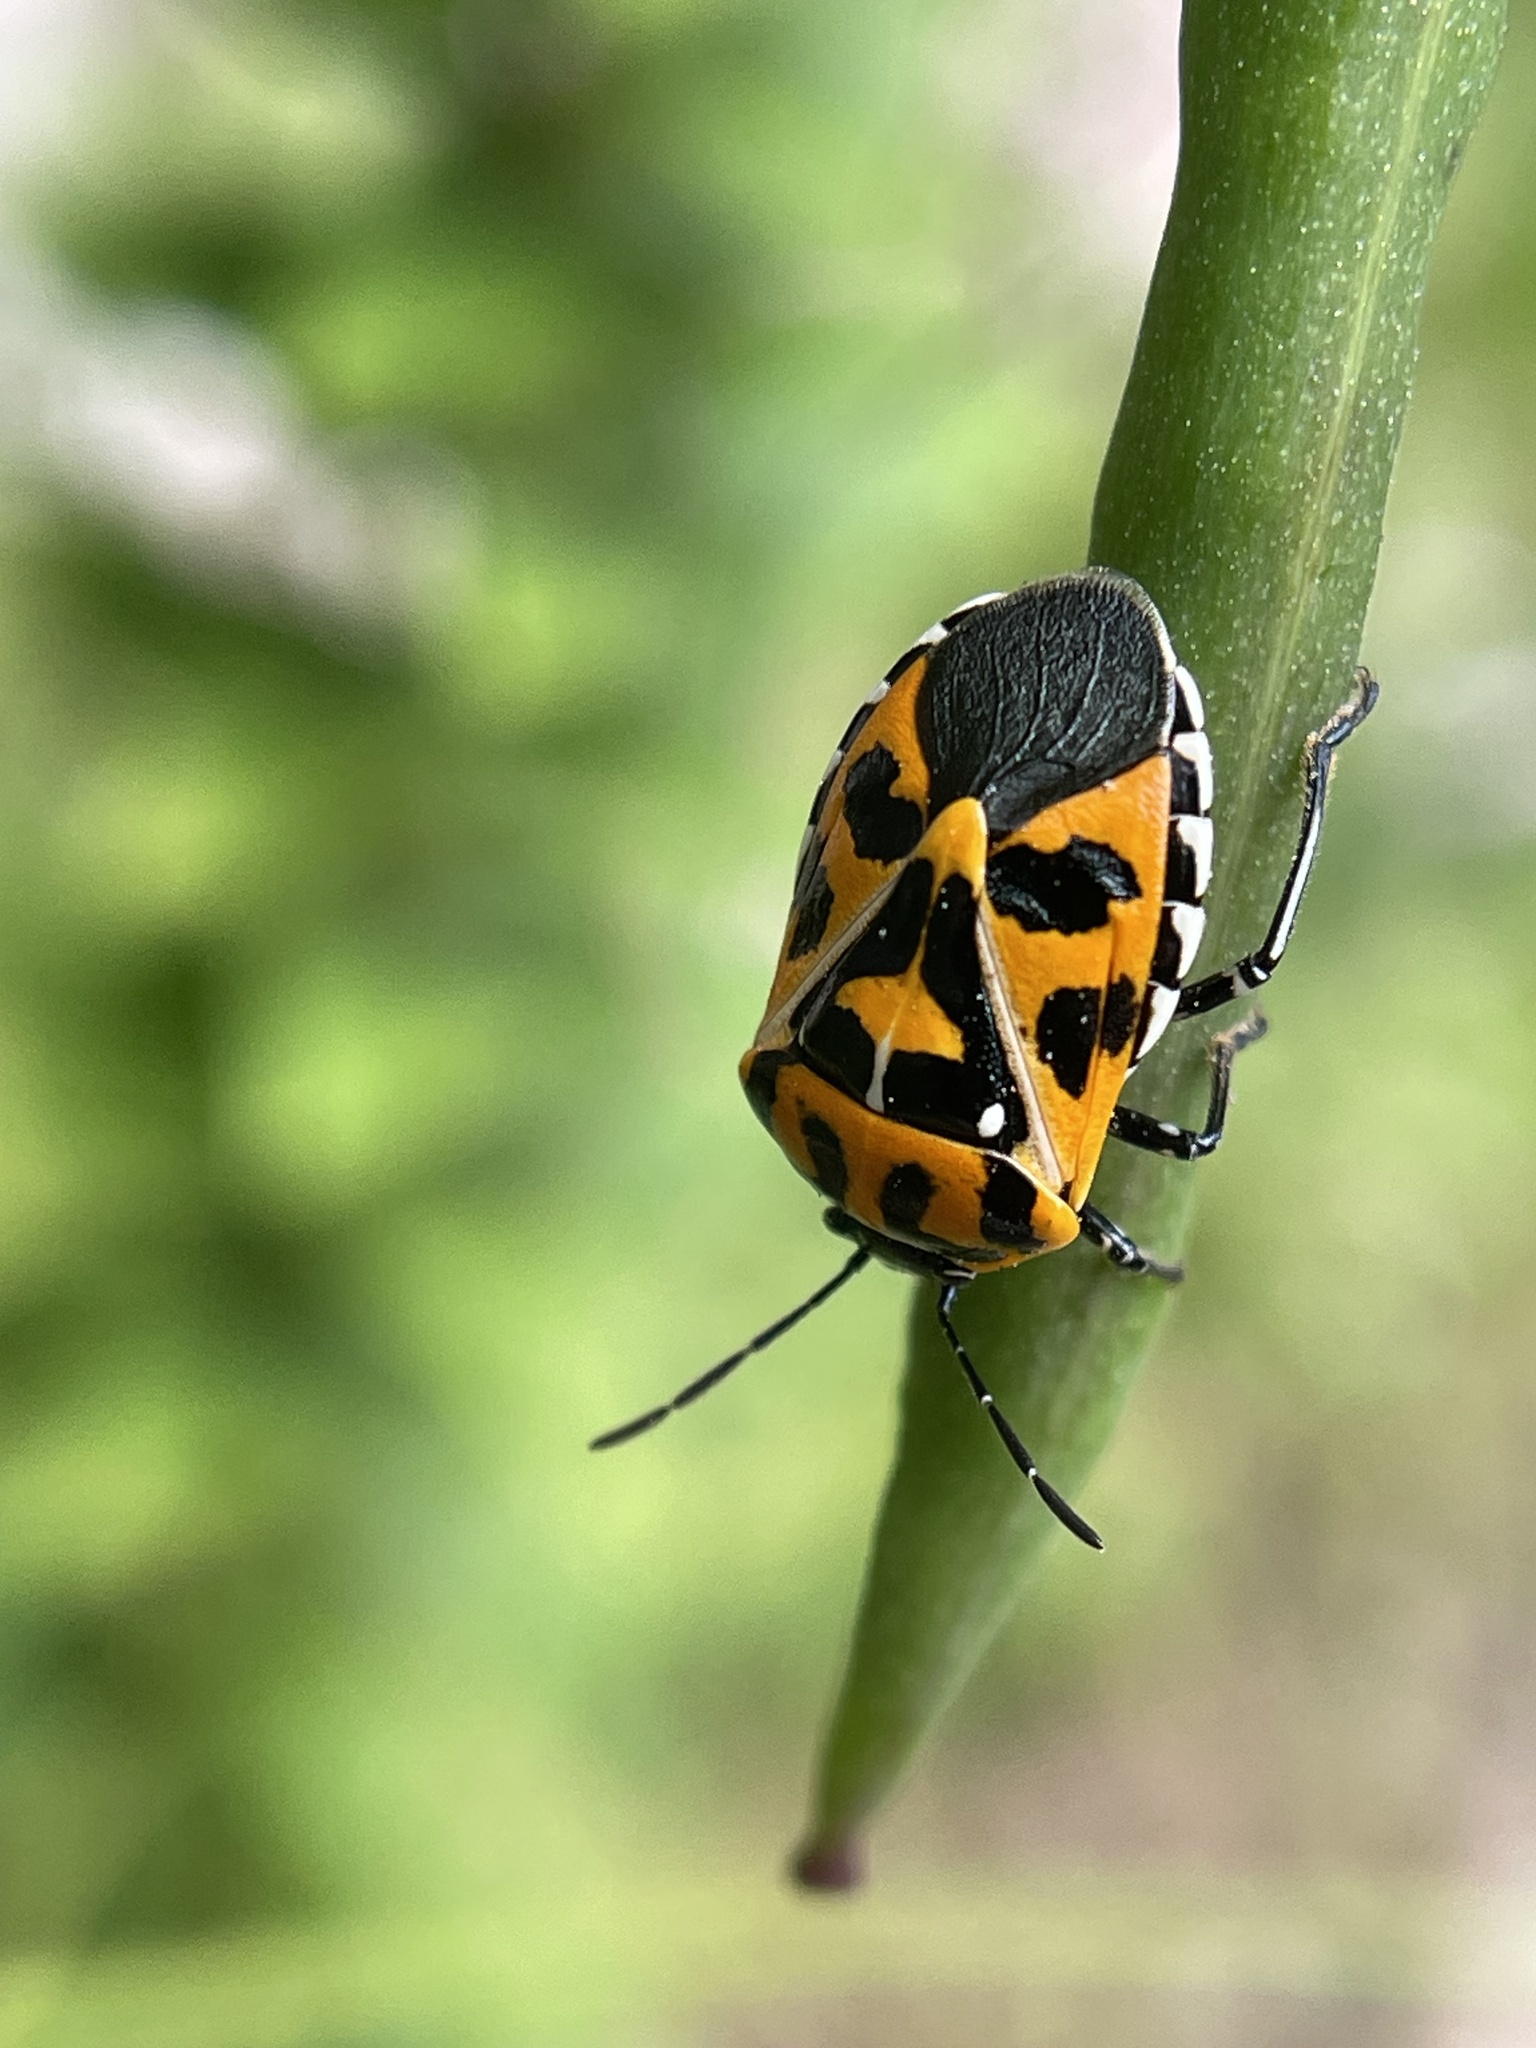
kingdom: Animalia
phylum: Arthropoda
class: Insecta
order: Hemiptera
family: Pentatomidae
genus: Murgantia
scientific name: Murgantia histrionica
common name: Harlequin bug
